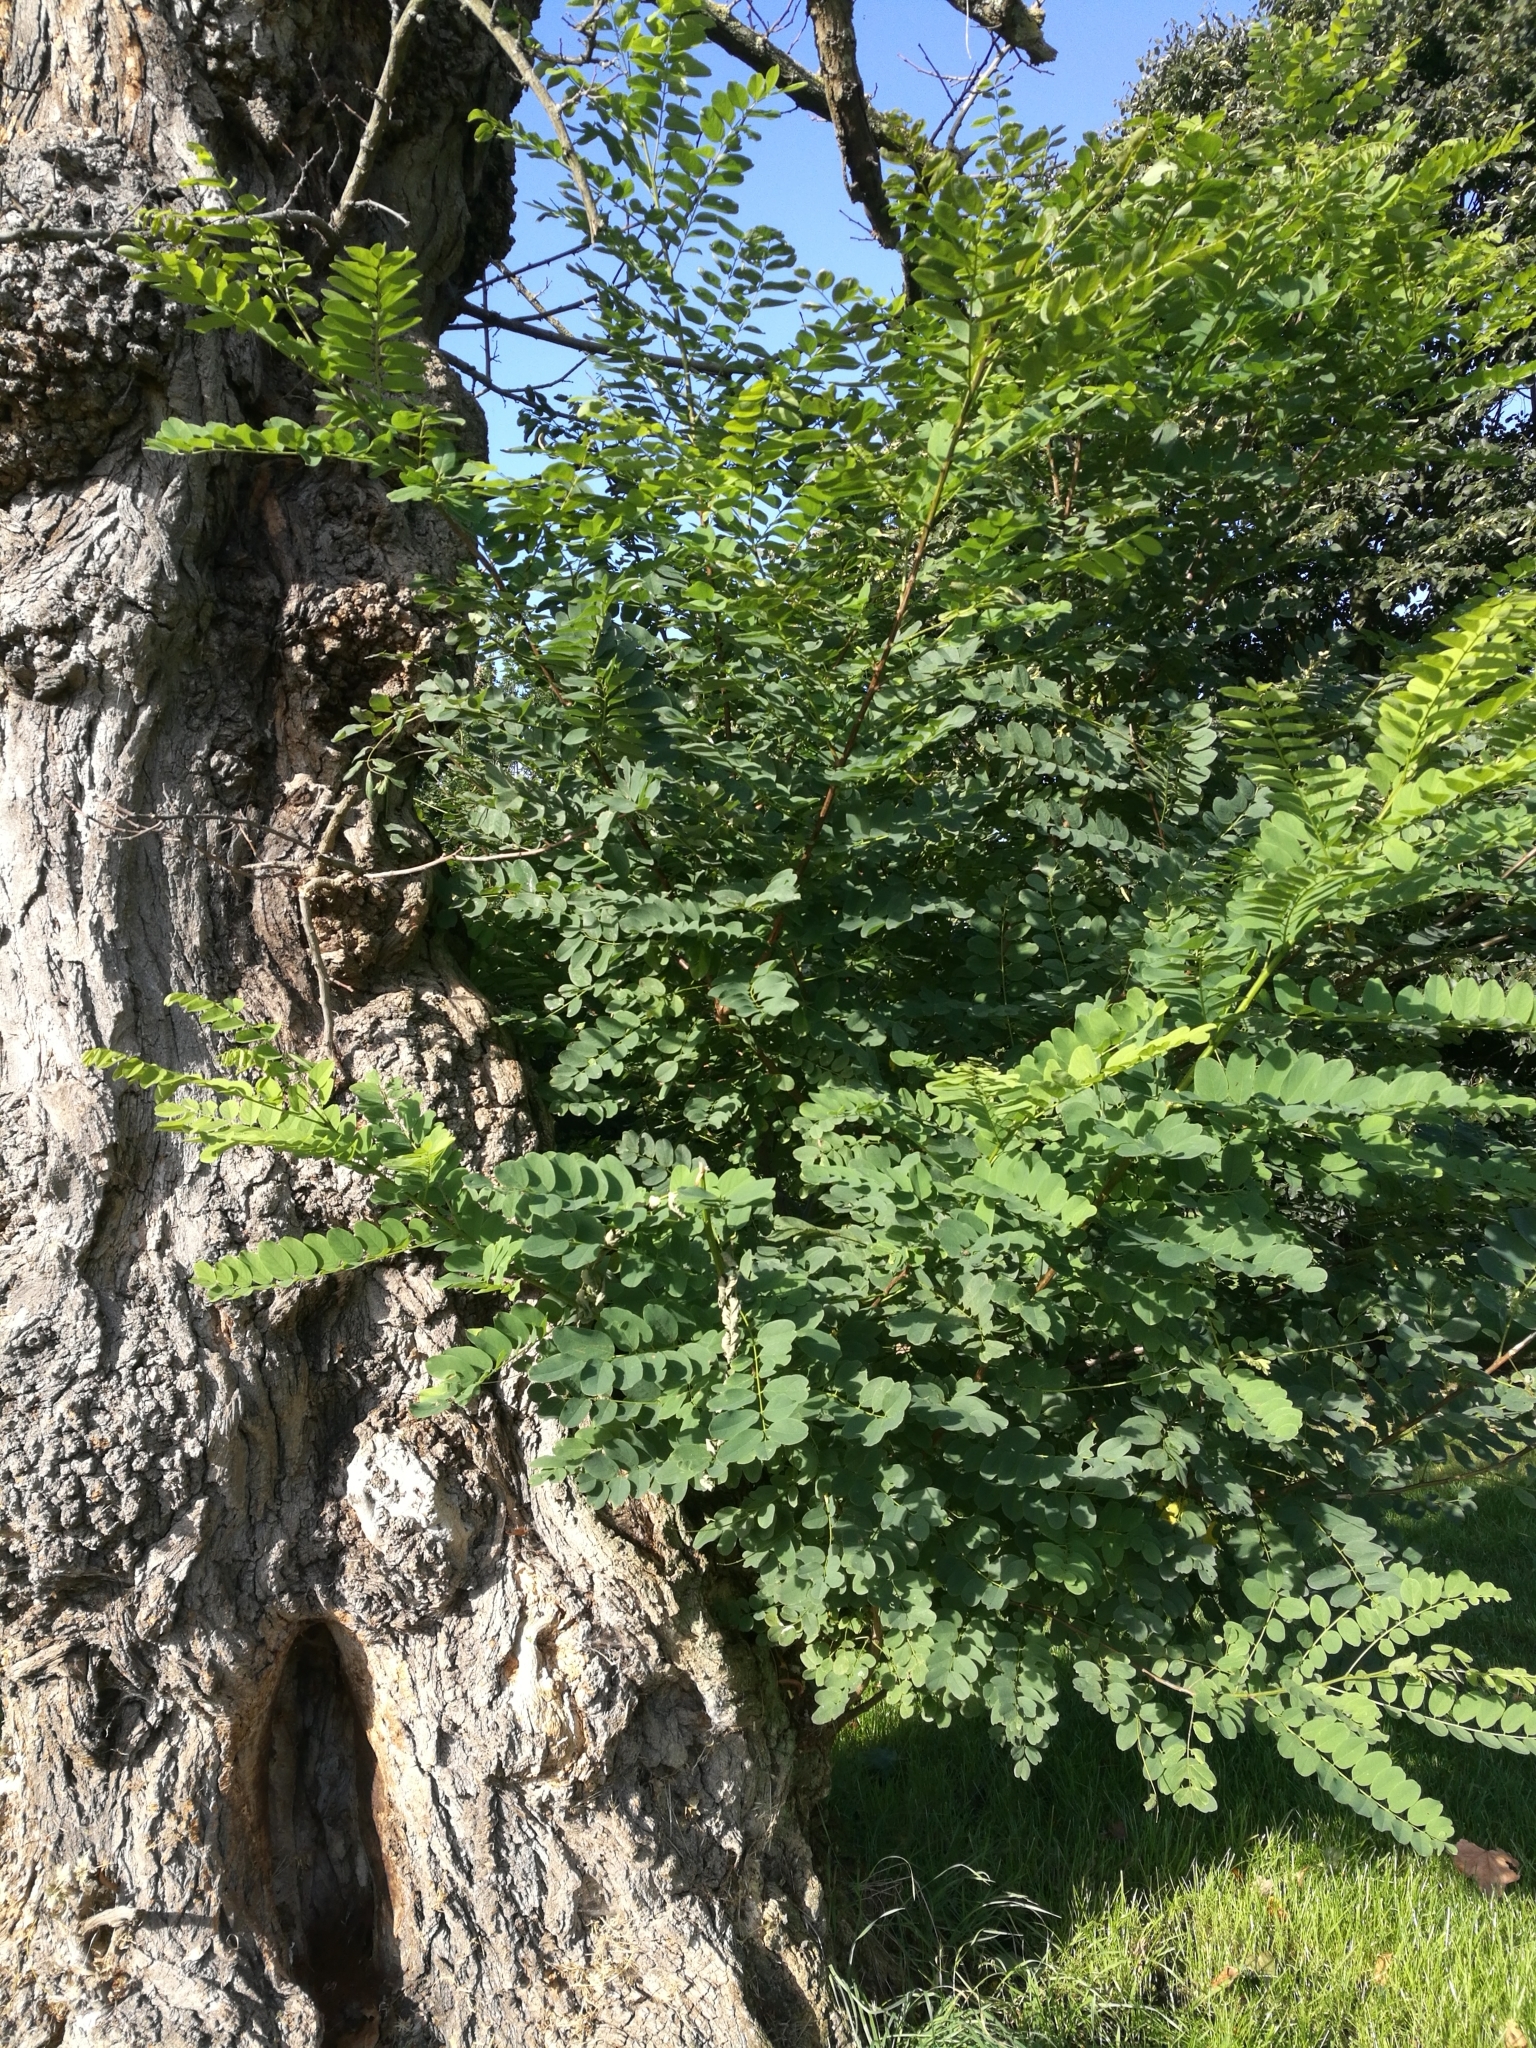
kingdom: Plantae
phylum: Tracheophyta
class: Magnoliopsida
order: Fabales
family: Fabaceae
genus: Robinia
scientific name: Robinia pseudoacacia
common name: Black locust
